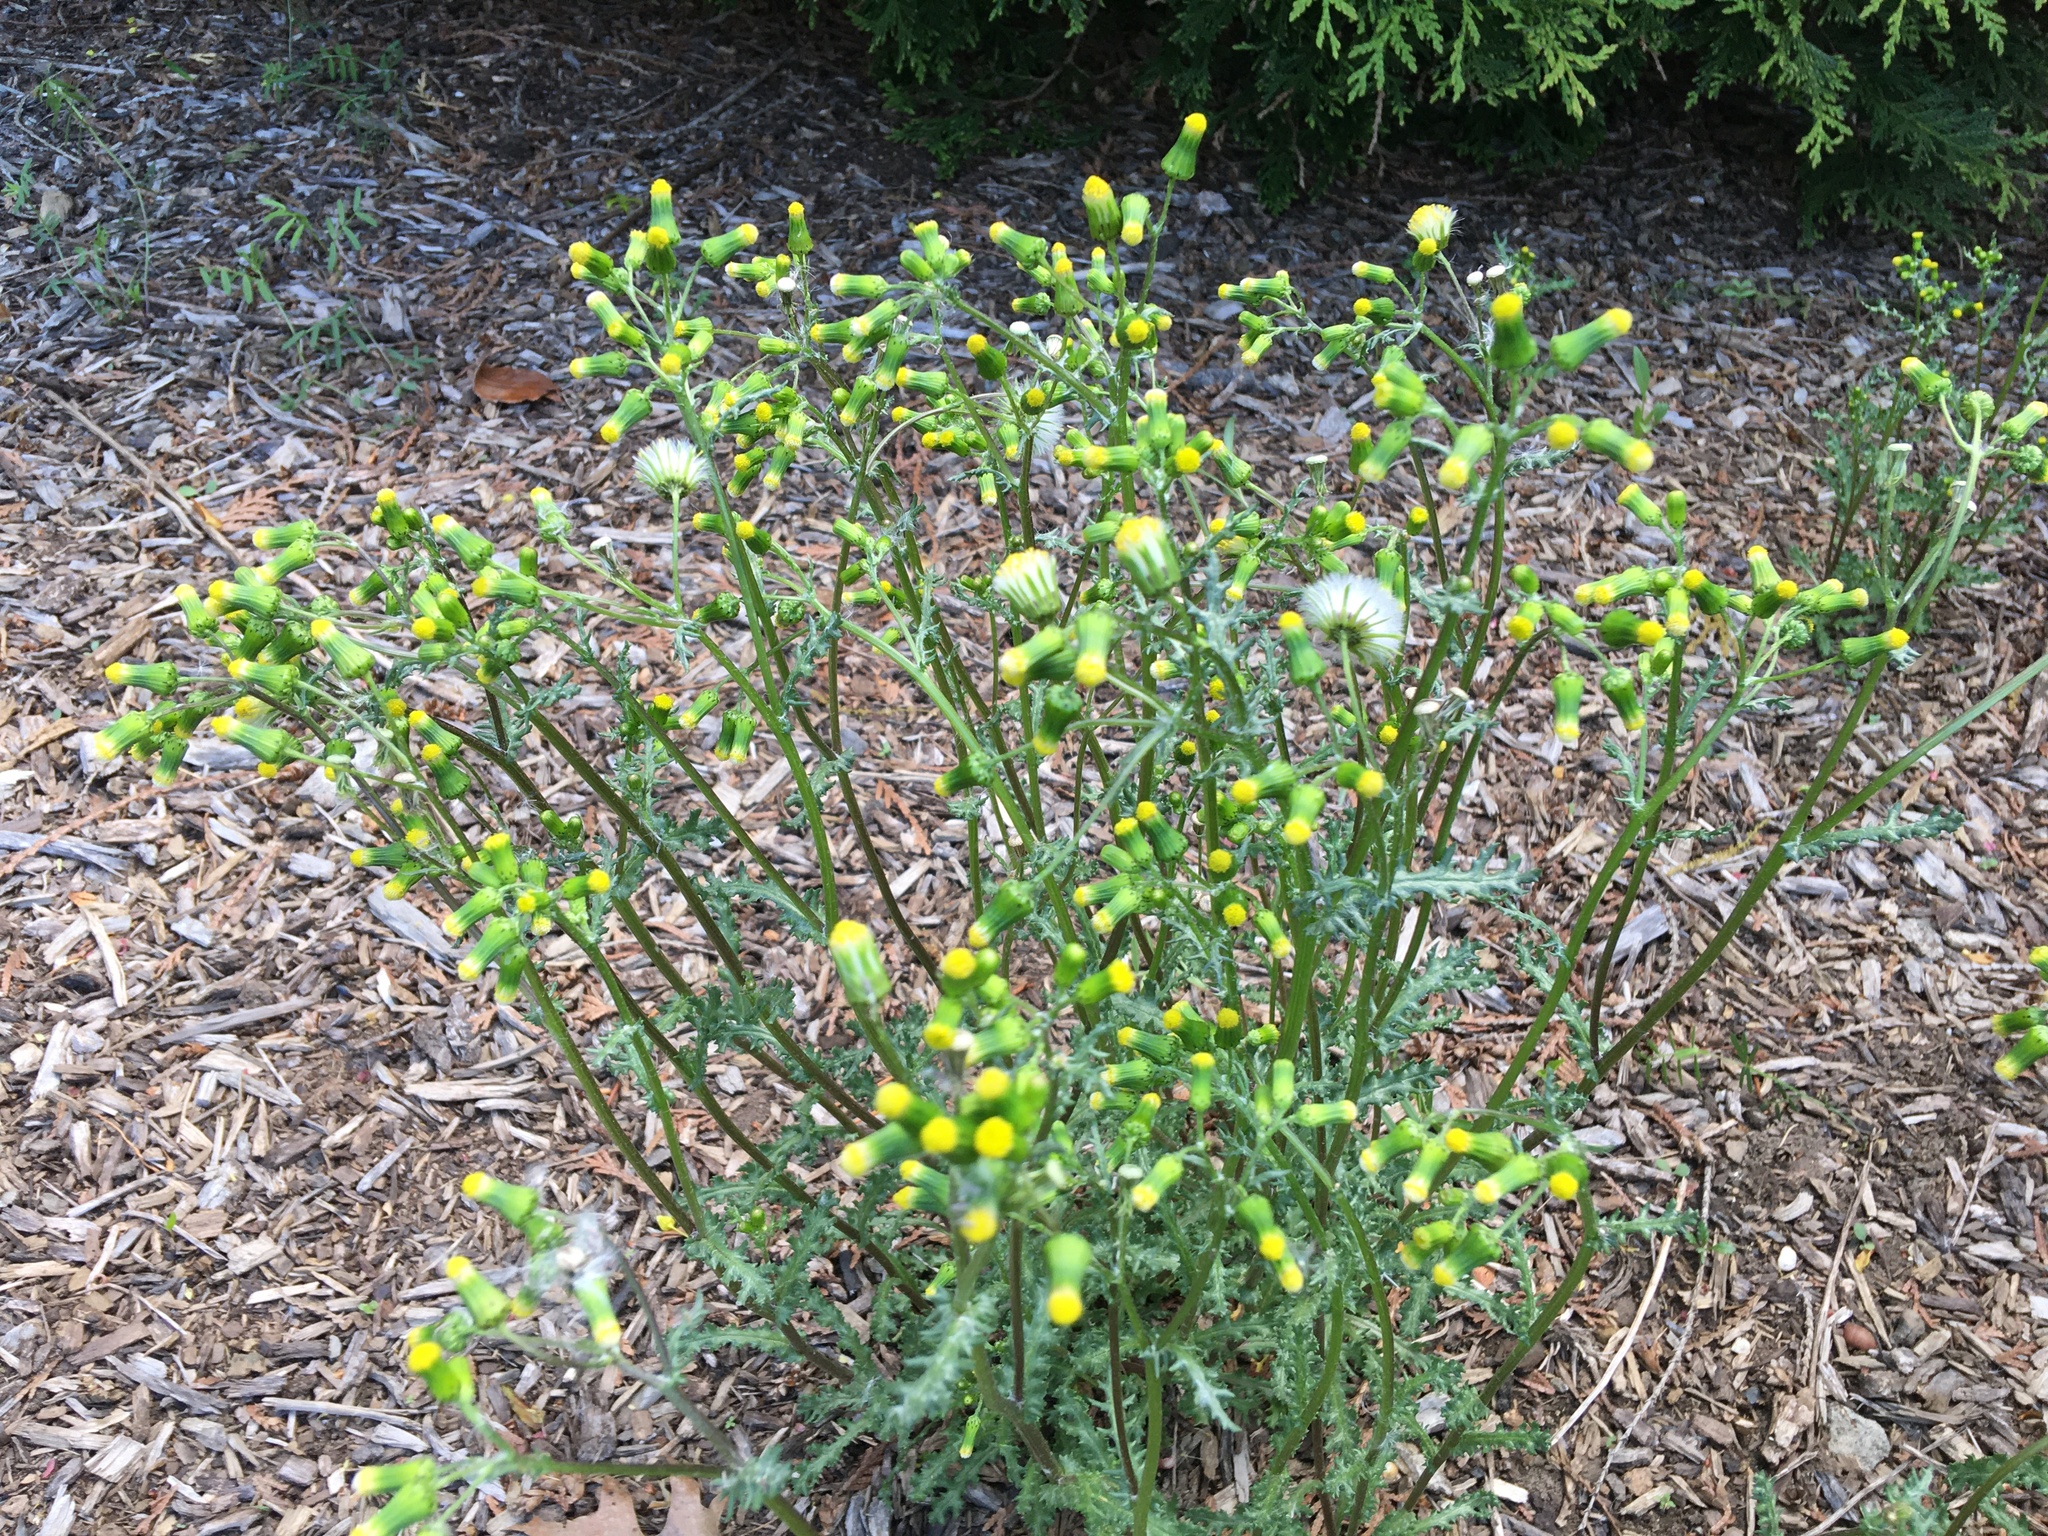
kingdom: Plantae
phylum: Tracheophyta
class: Magnoliopsida
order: Asterales
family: Asteraceae
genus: Senecio
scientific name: Senecio vulgaris
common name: Old-man-in-the-spring
